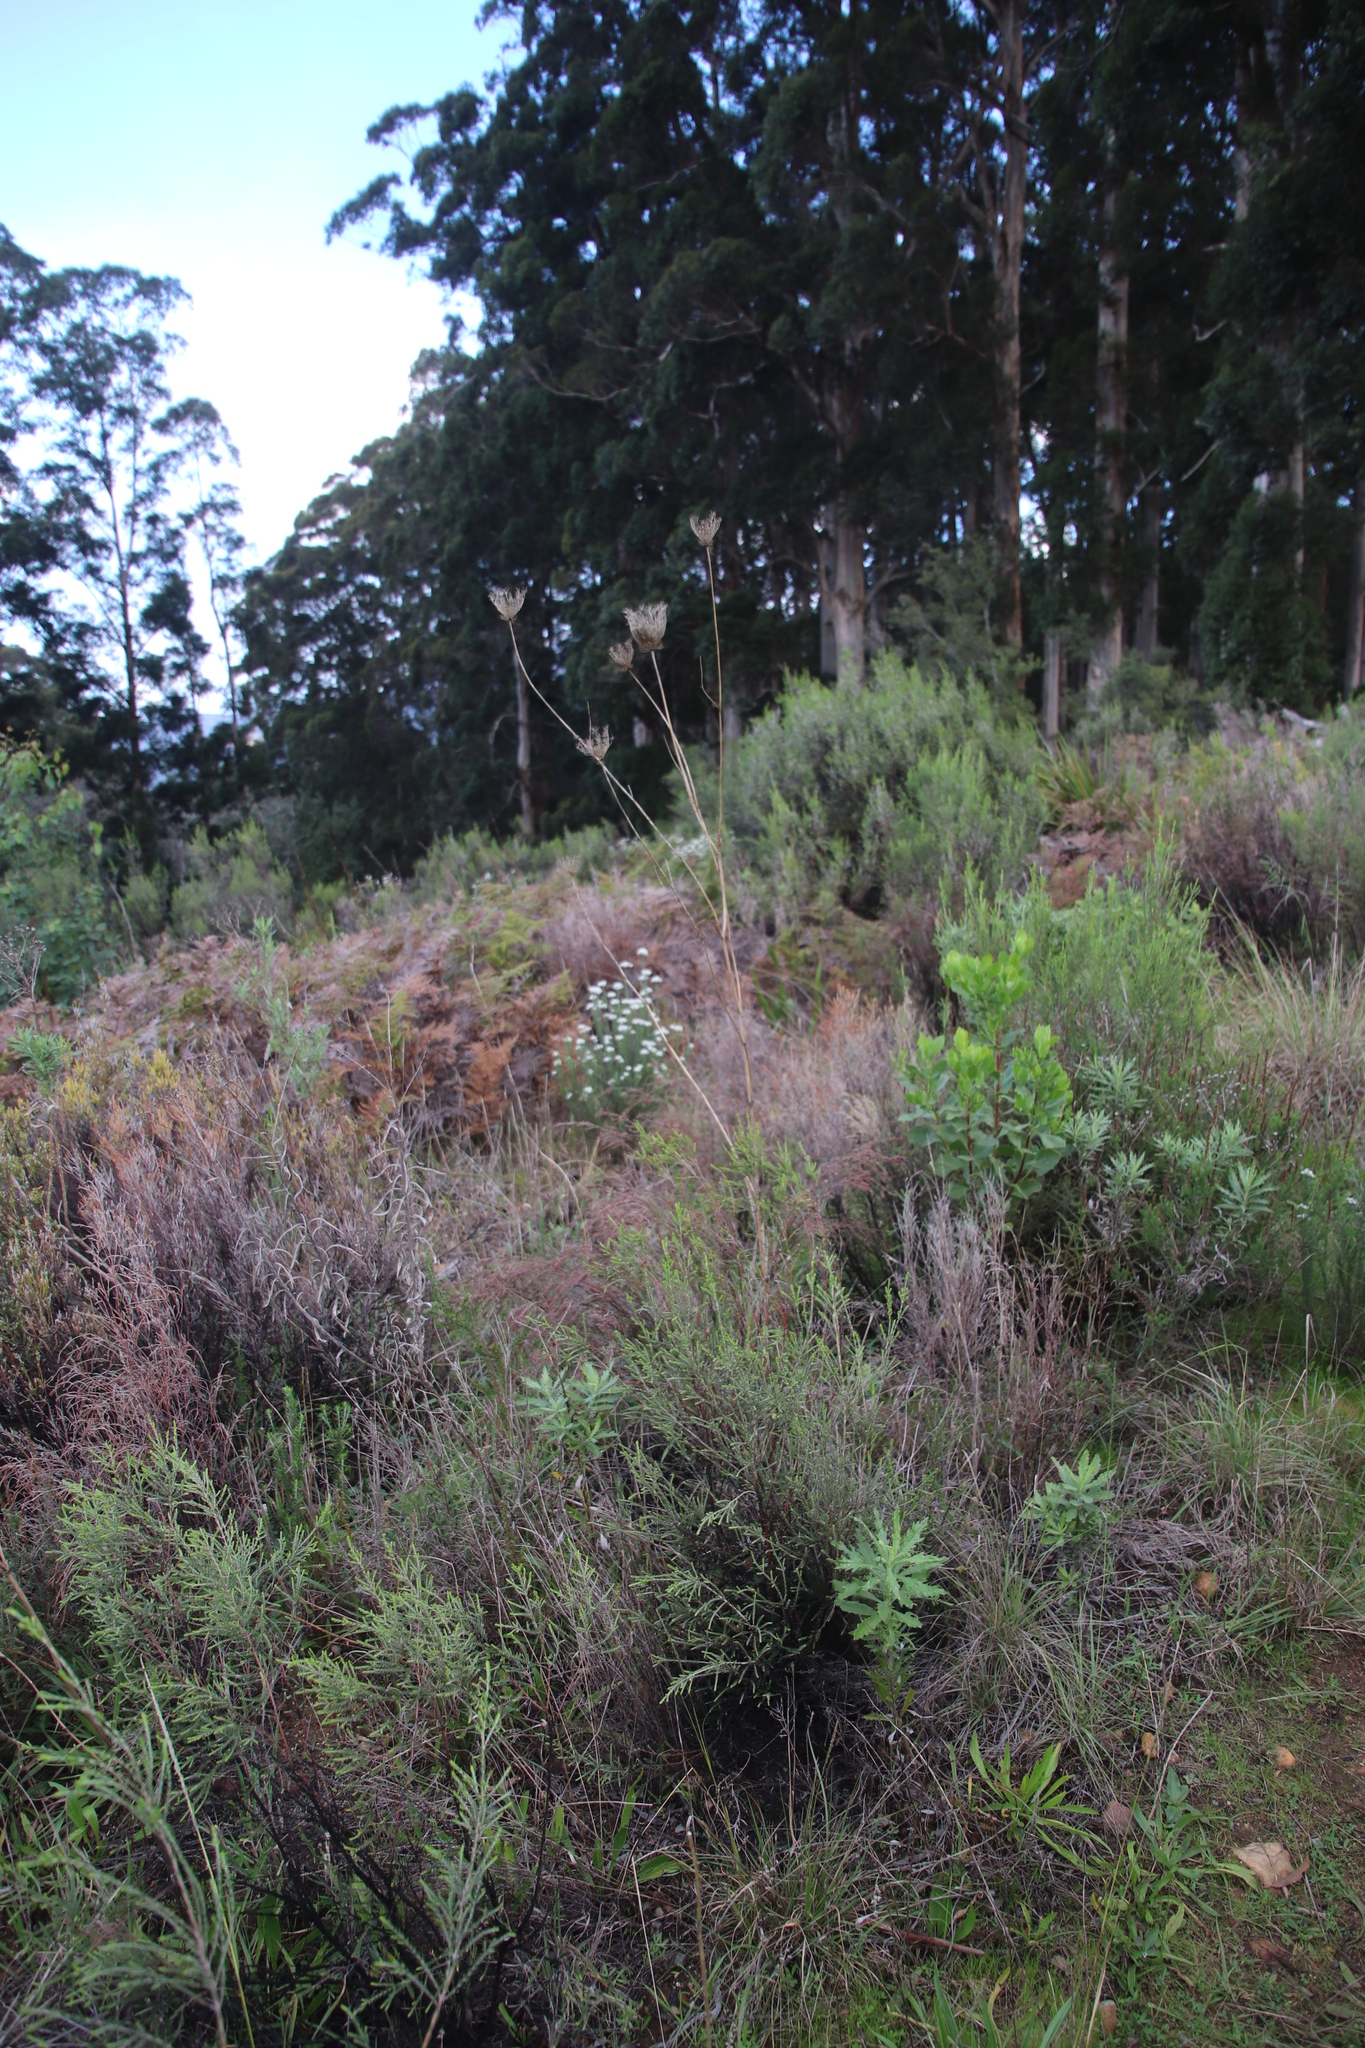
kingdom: Plantae
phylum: Tracheophyta
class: Magnoliopsida
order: Apiales
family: Apiaceae
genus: Daucus
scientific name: Daucus carota
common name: Wild carrot
